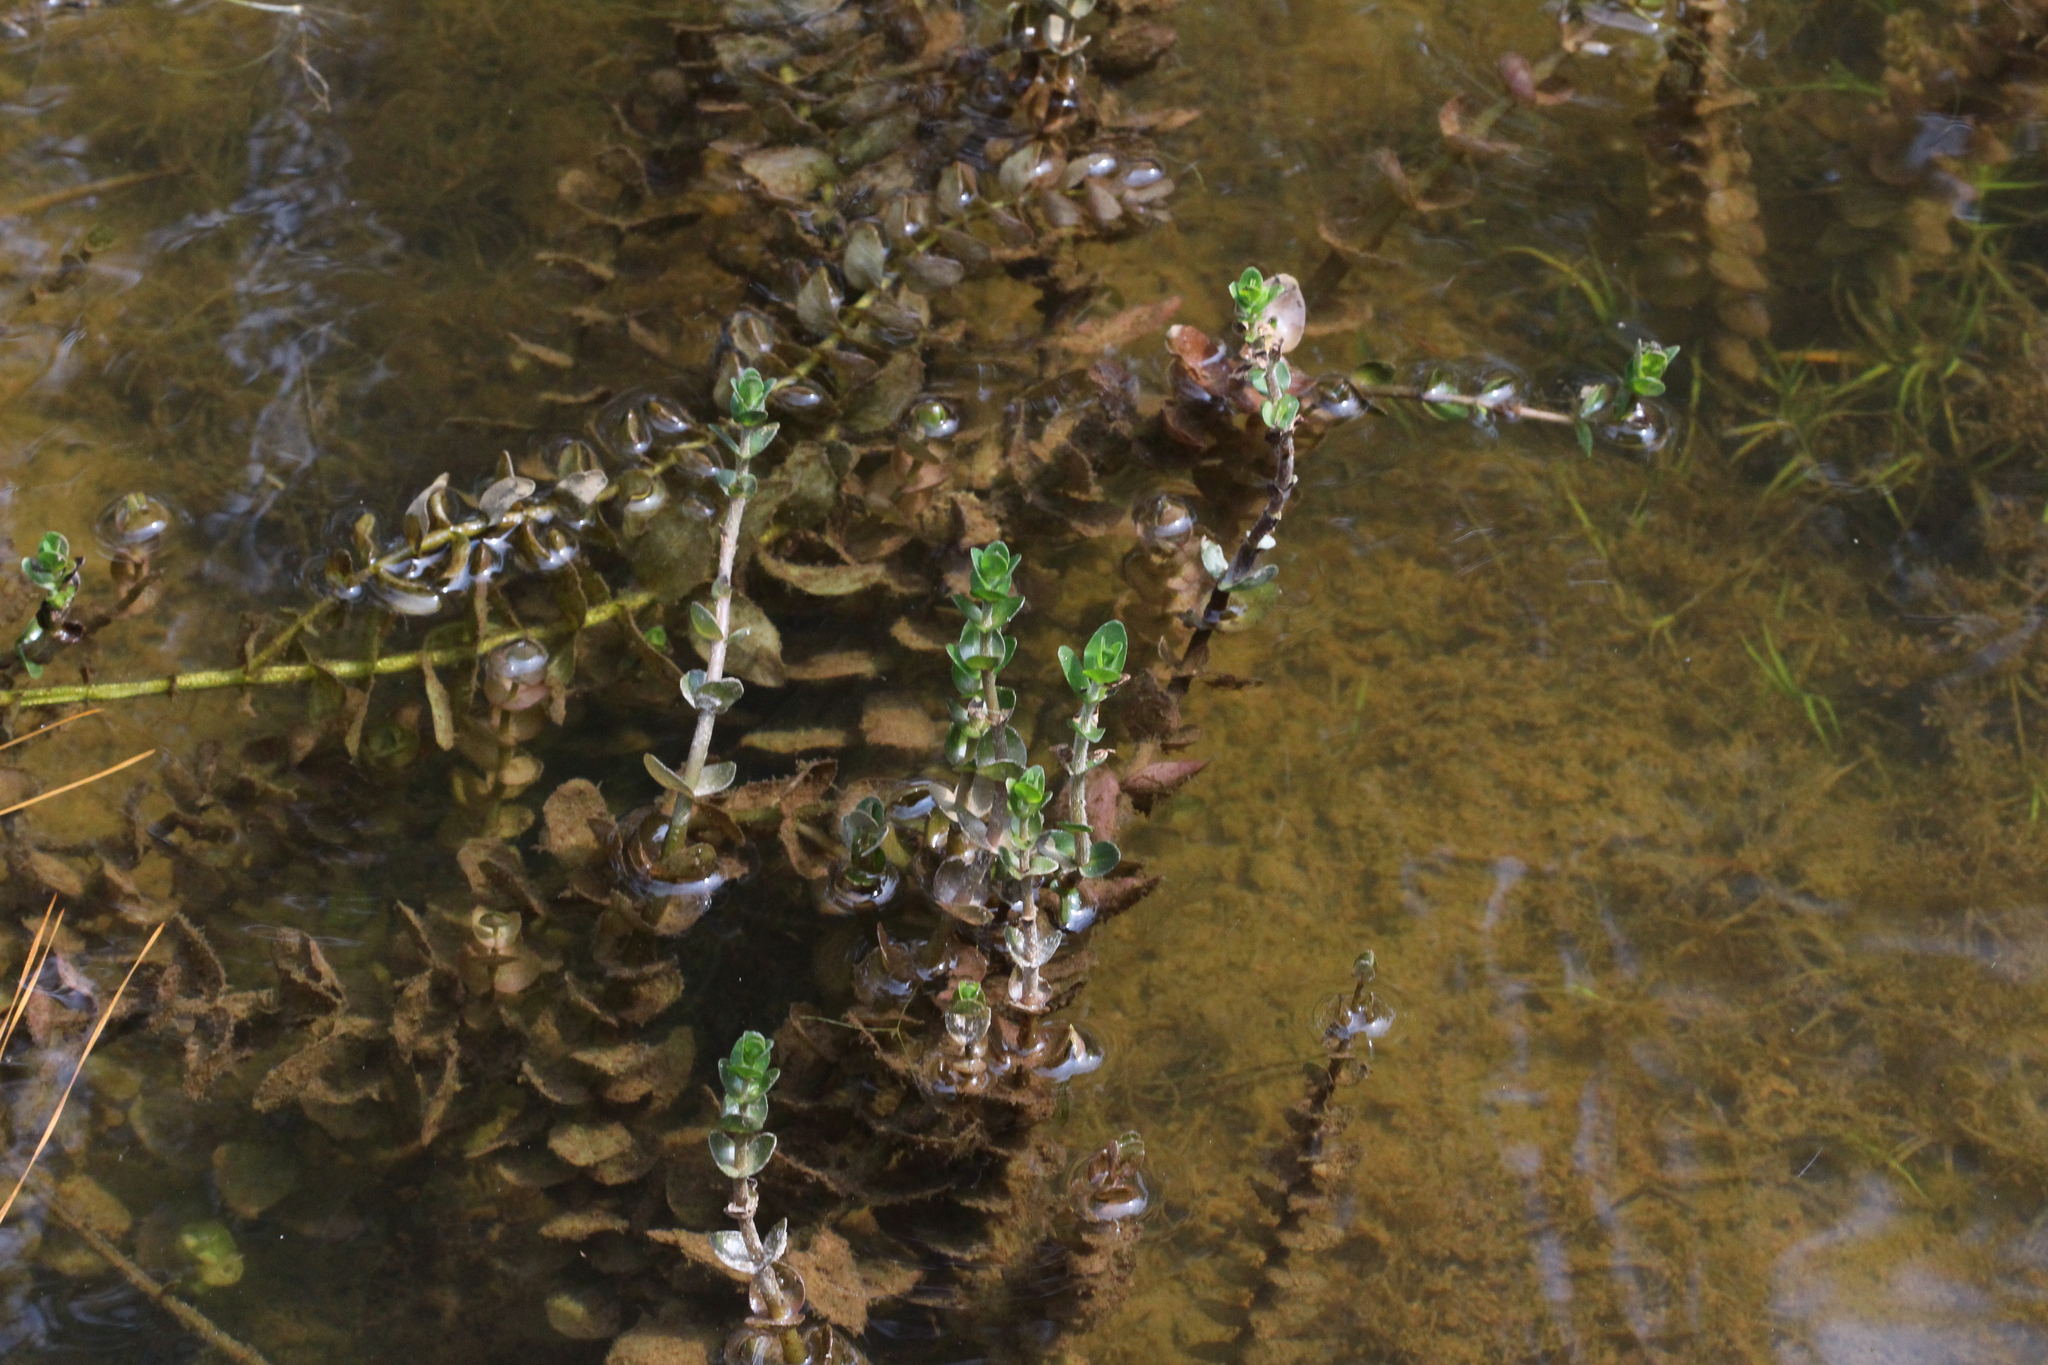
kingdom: Plantae
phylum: Tracheophyta
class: Magnoliopsida
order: Lamiales
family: Plantaginaceae
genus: Bacopa
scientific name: Bacopa caroliniana
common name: Lemon bacopa
